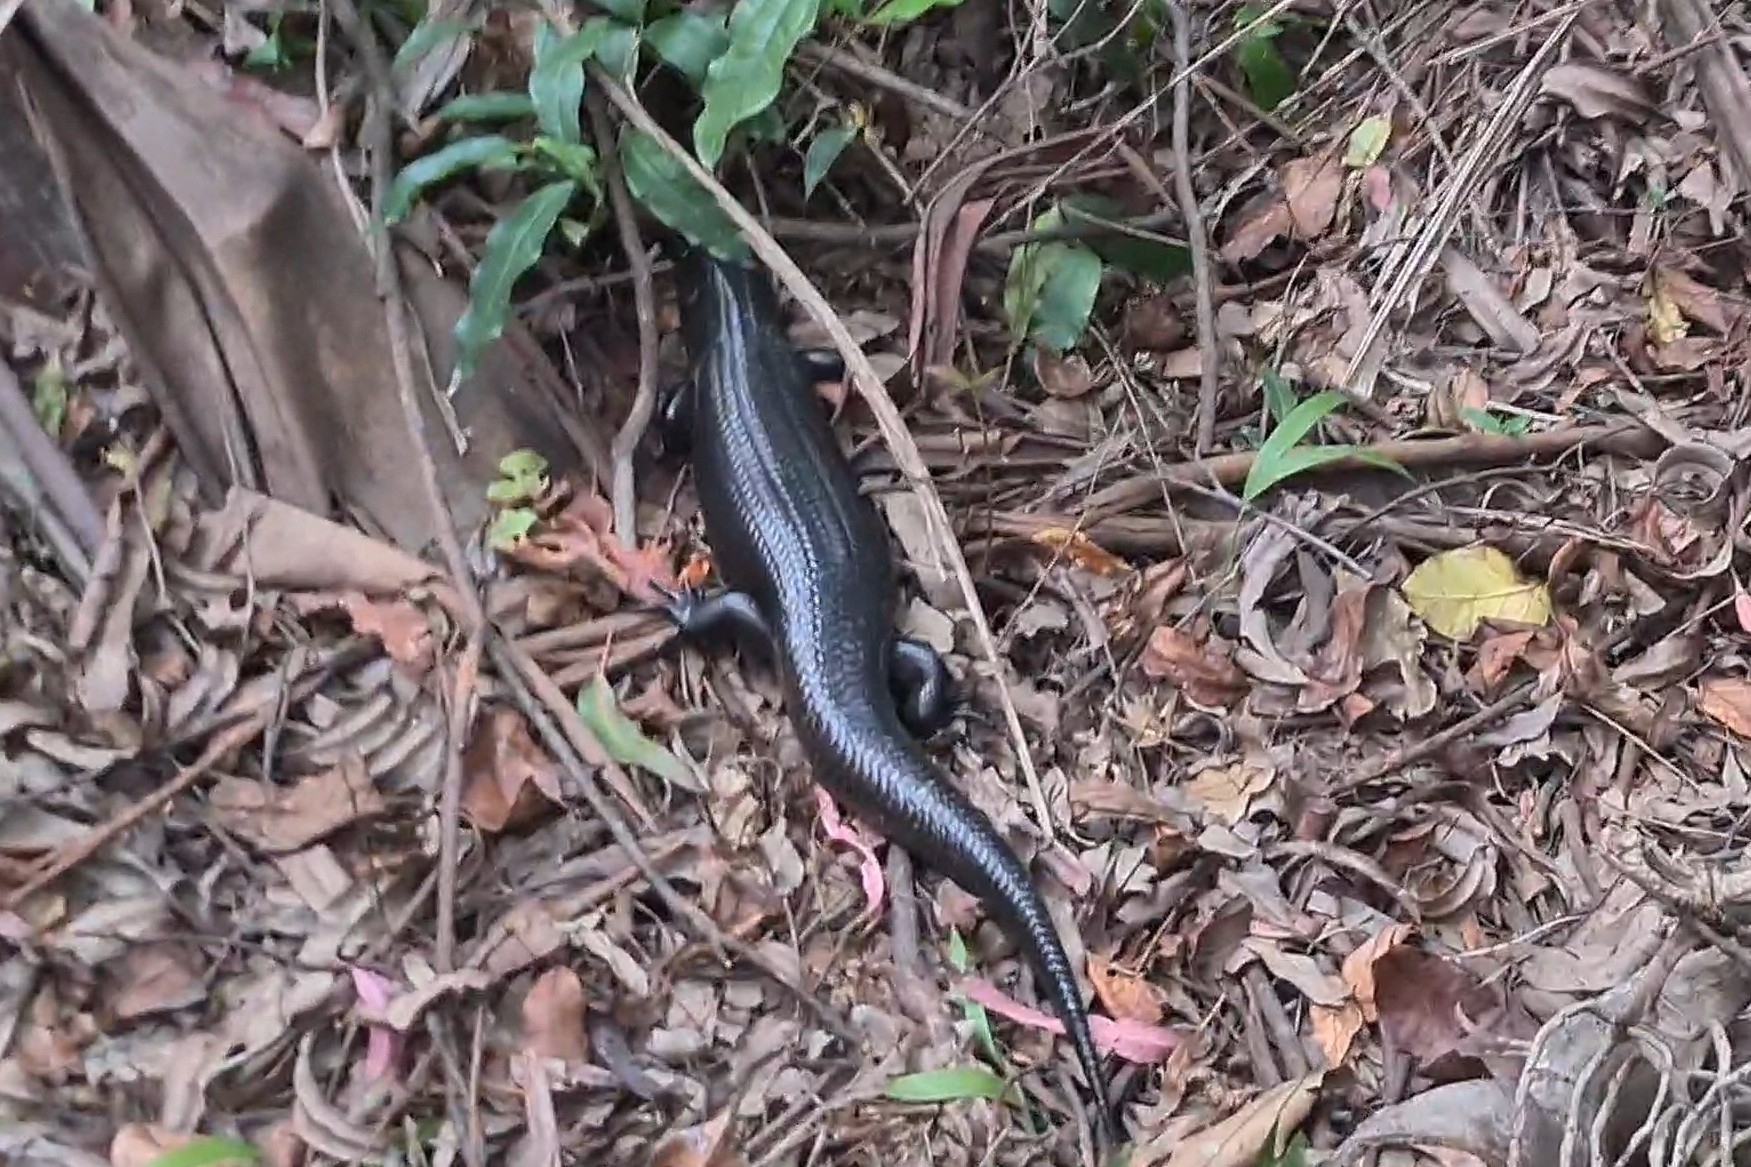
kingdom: Animalia
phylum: Chordata
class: Squamata
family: Scincidae
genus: Bellatorias
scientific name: Bellatorias major
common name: Land mullet
